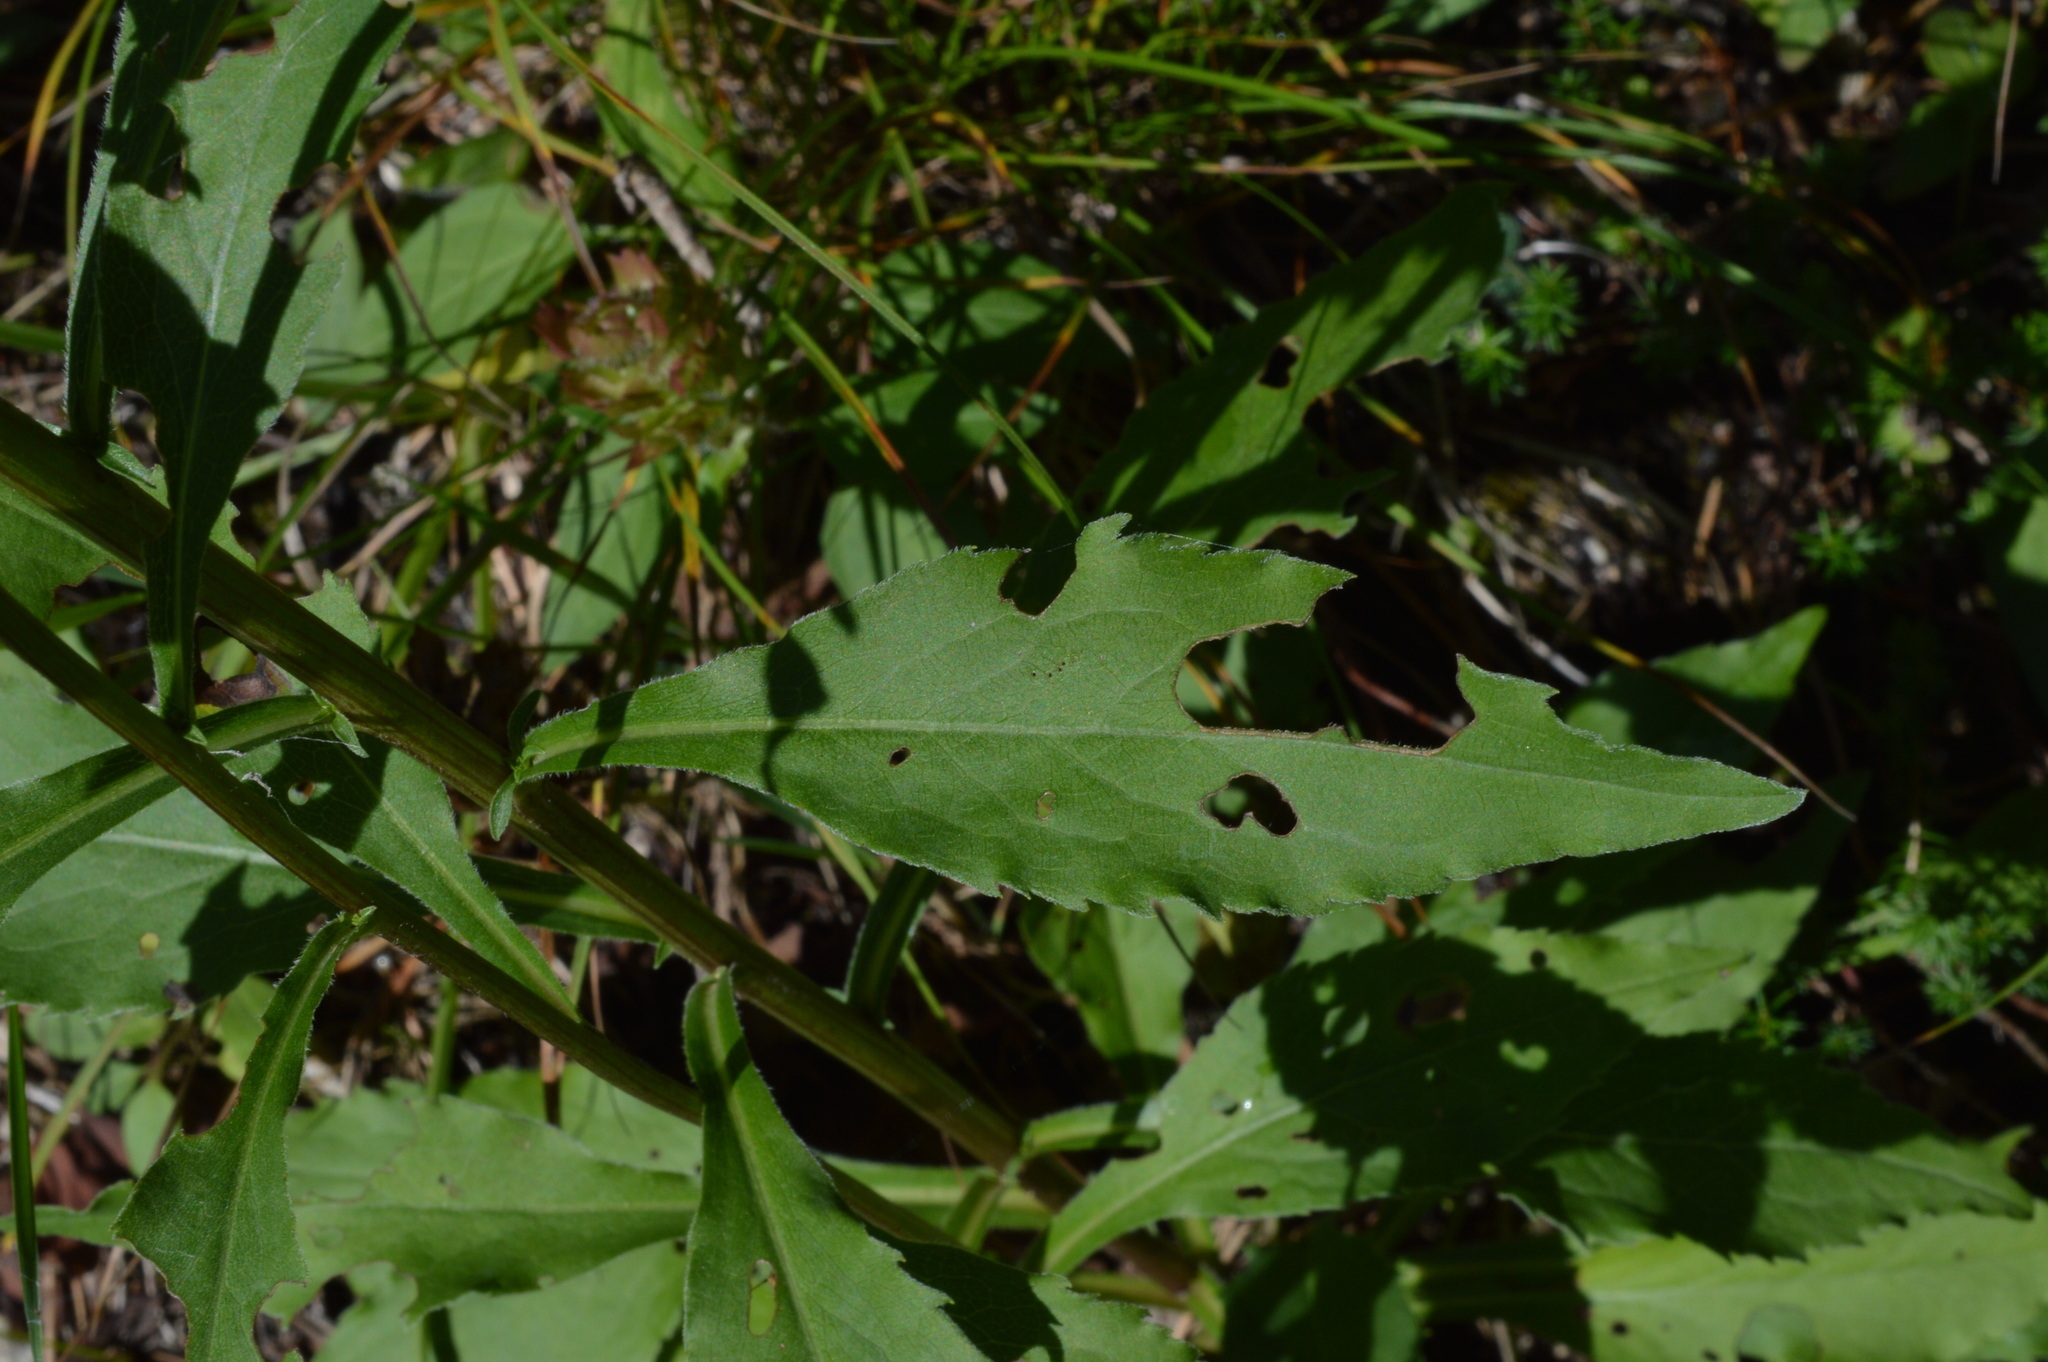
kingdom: Plantae
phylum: Tracheophyta
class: Magnoliopsida
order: Asterales
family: Asteraceae
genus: Solidago
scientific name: Solidago virgaurea
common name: Goldenrod
